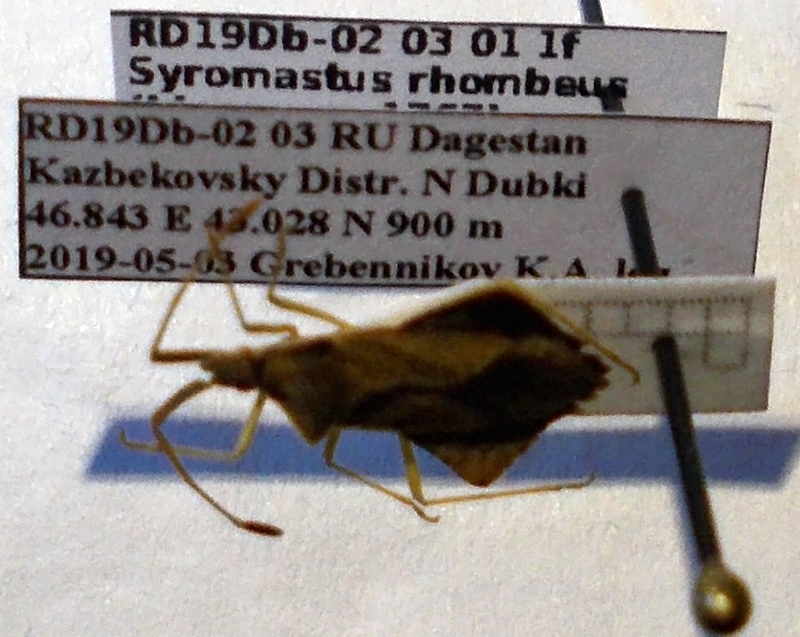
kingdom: Animalia
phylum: Arthropoda
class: Insecta
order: Hemiptera
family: Coreidae
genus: Syromastus
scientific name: Syromastus rhombeus
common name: Rhombic leatherbug
